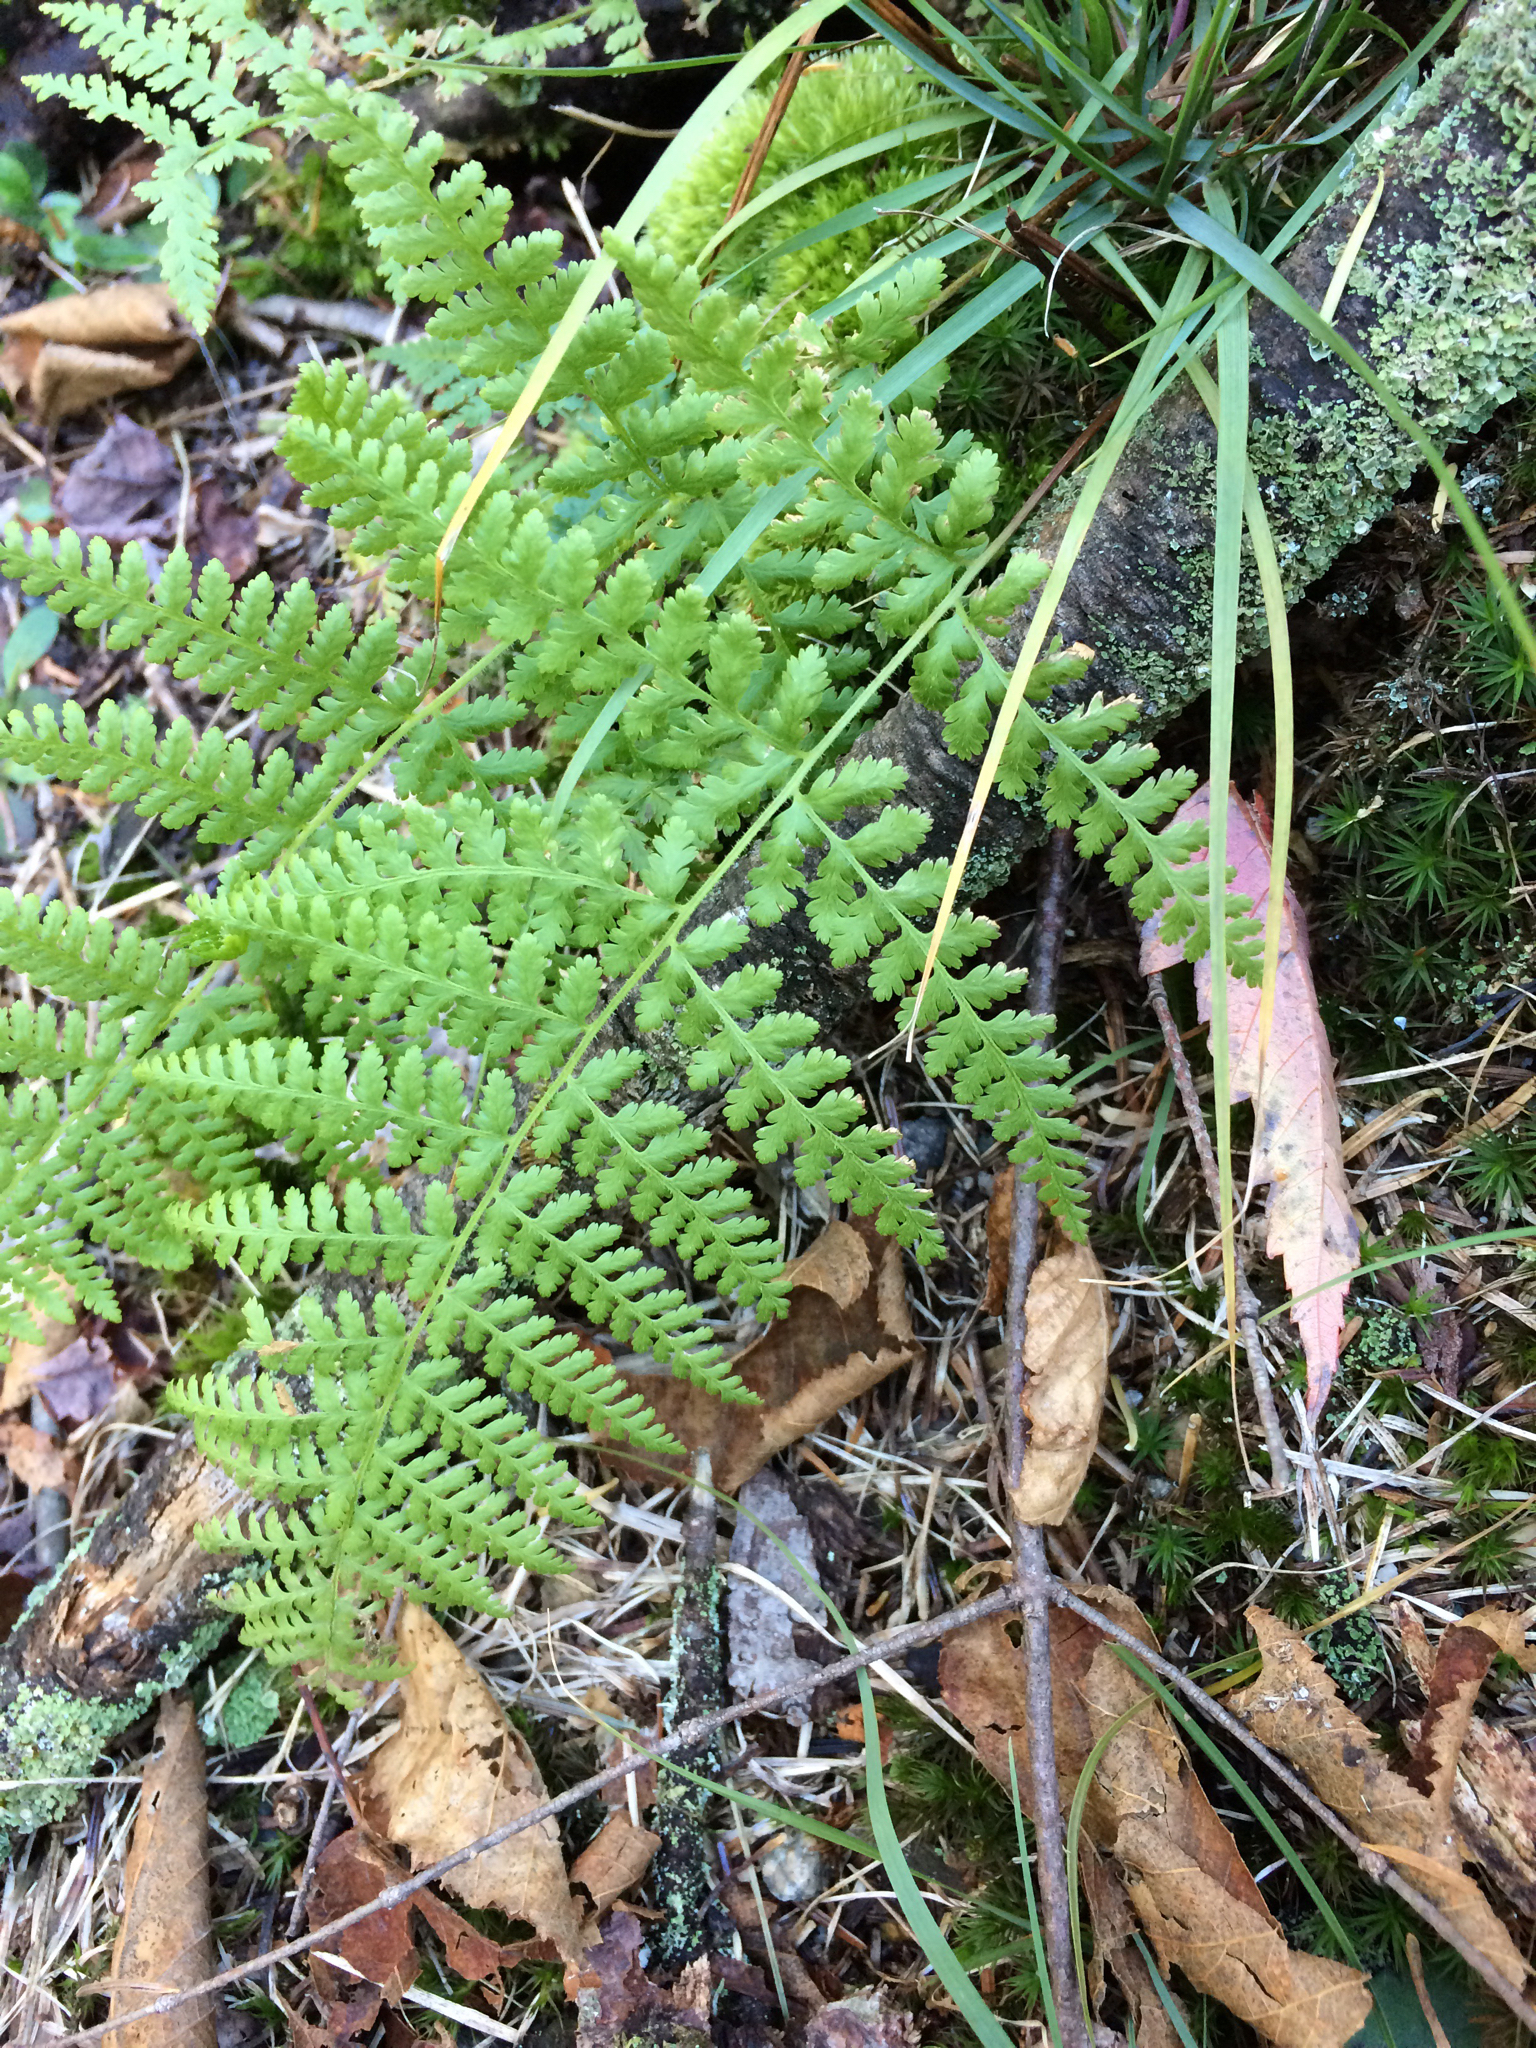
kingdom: Plantae
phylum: Tracheophyta
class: Polypodiopsida
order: Polypodiales
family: Dennstaedtiaceae
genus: Sitobolium
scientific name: Sitobolium punctilobum
